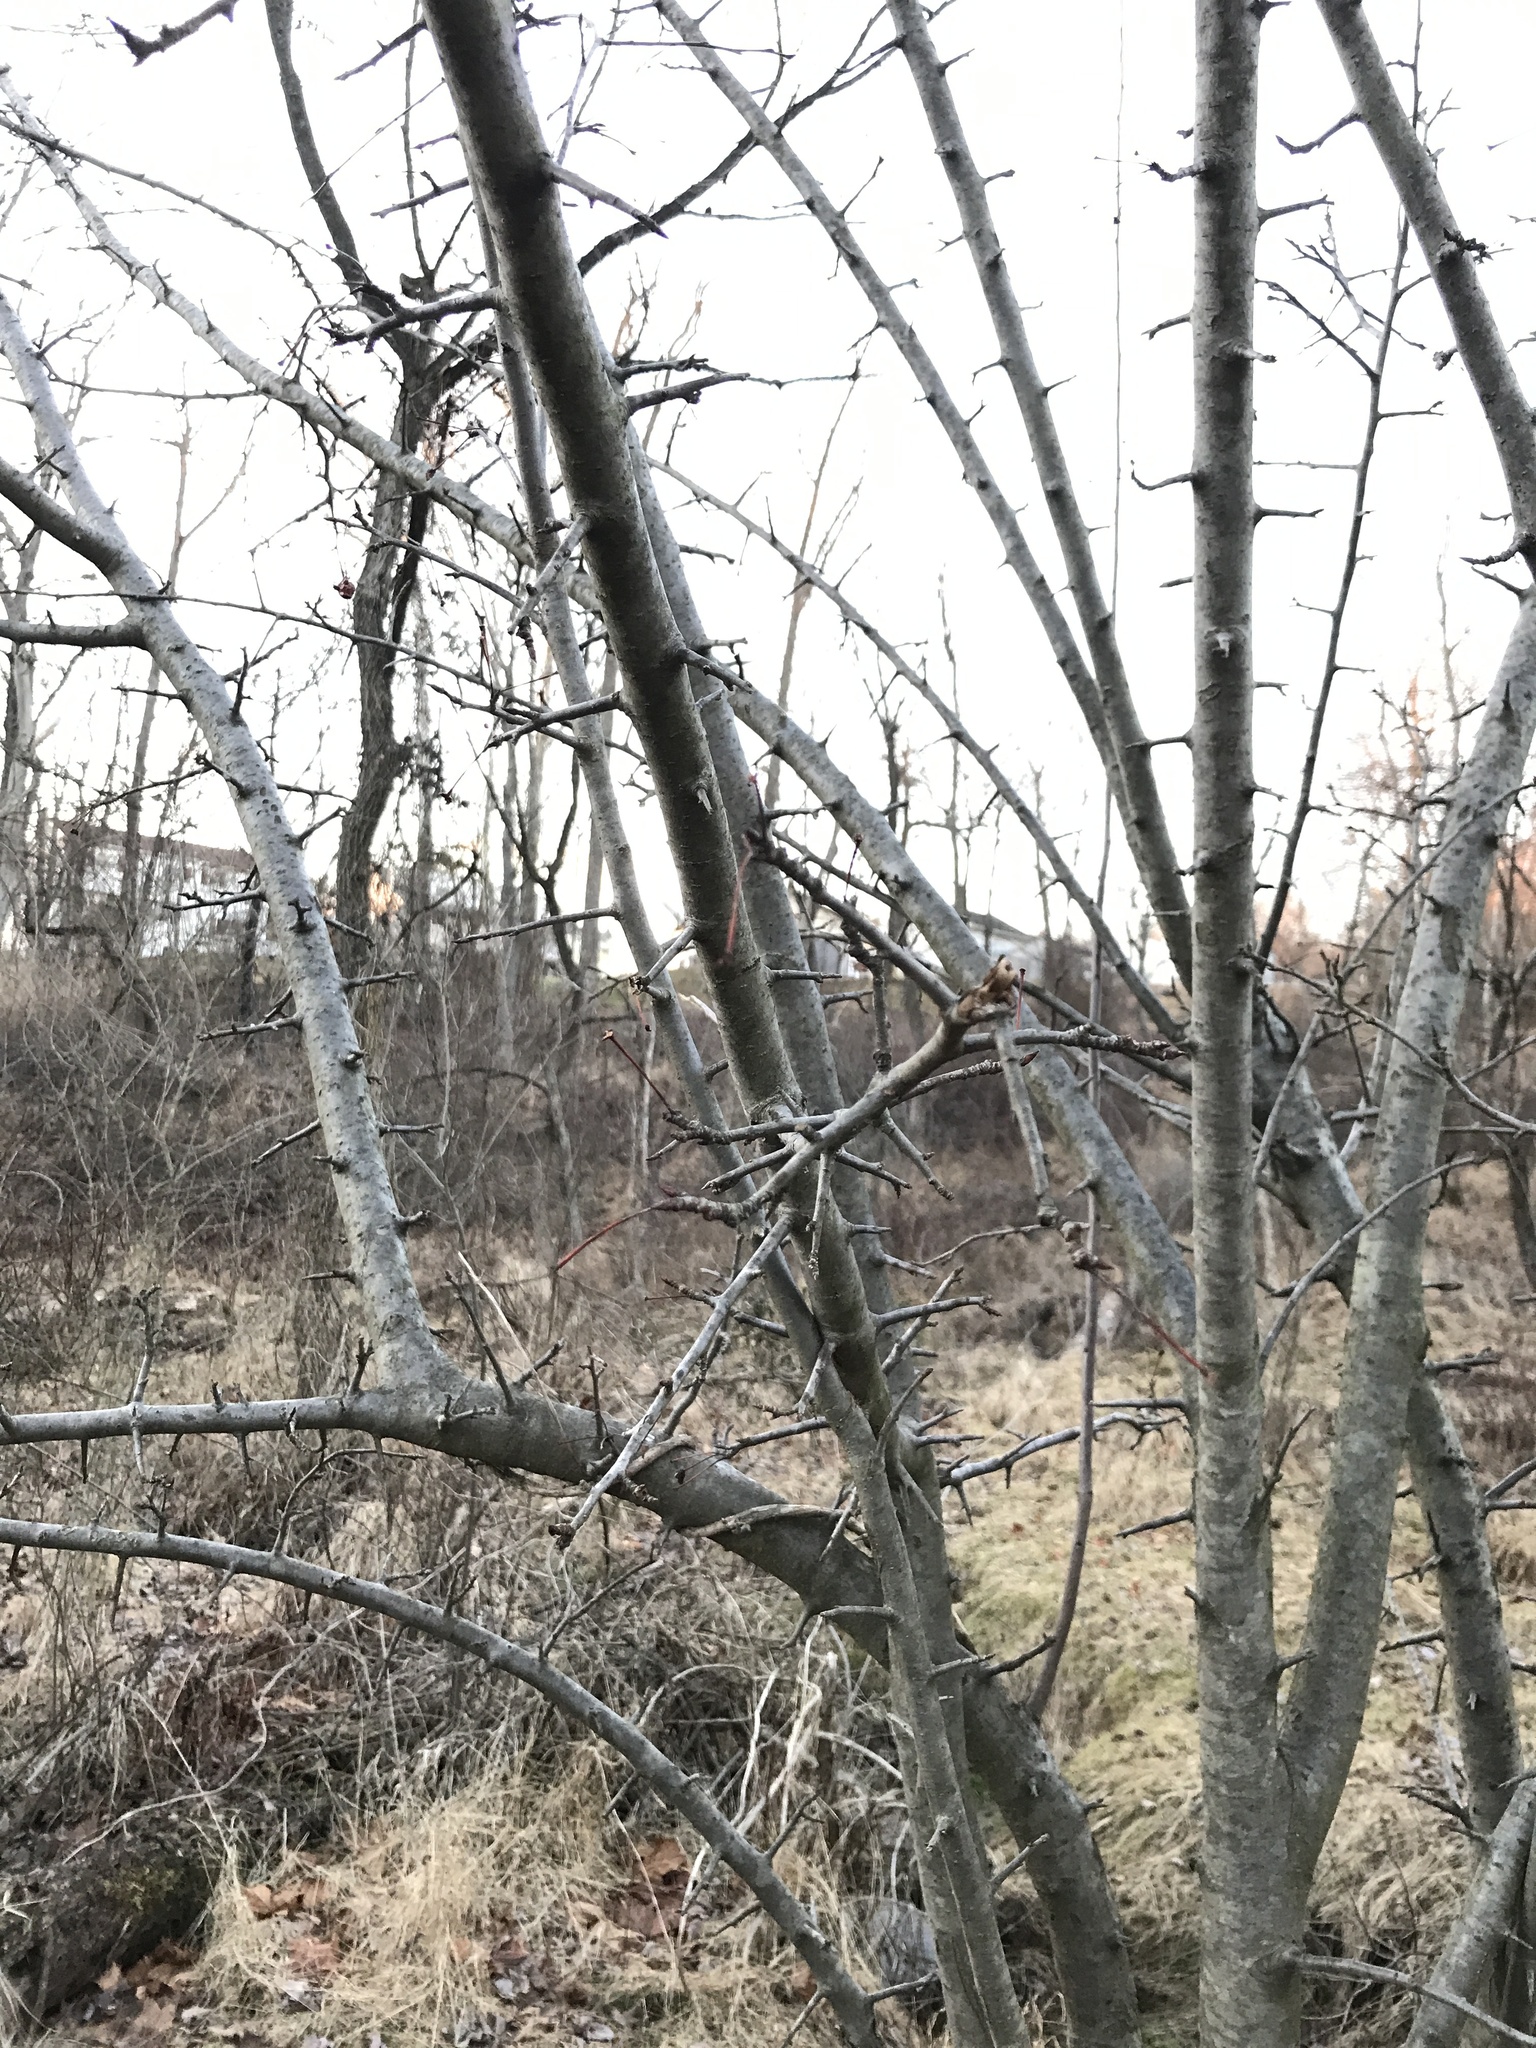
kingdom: Plantae
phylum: Tracheophyta
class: Magnoliopsida
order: Rosales
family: Rosaceae
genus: Pyrus
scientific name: Pyrus calleryana
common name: Callery pear
